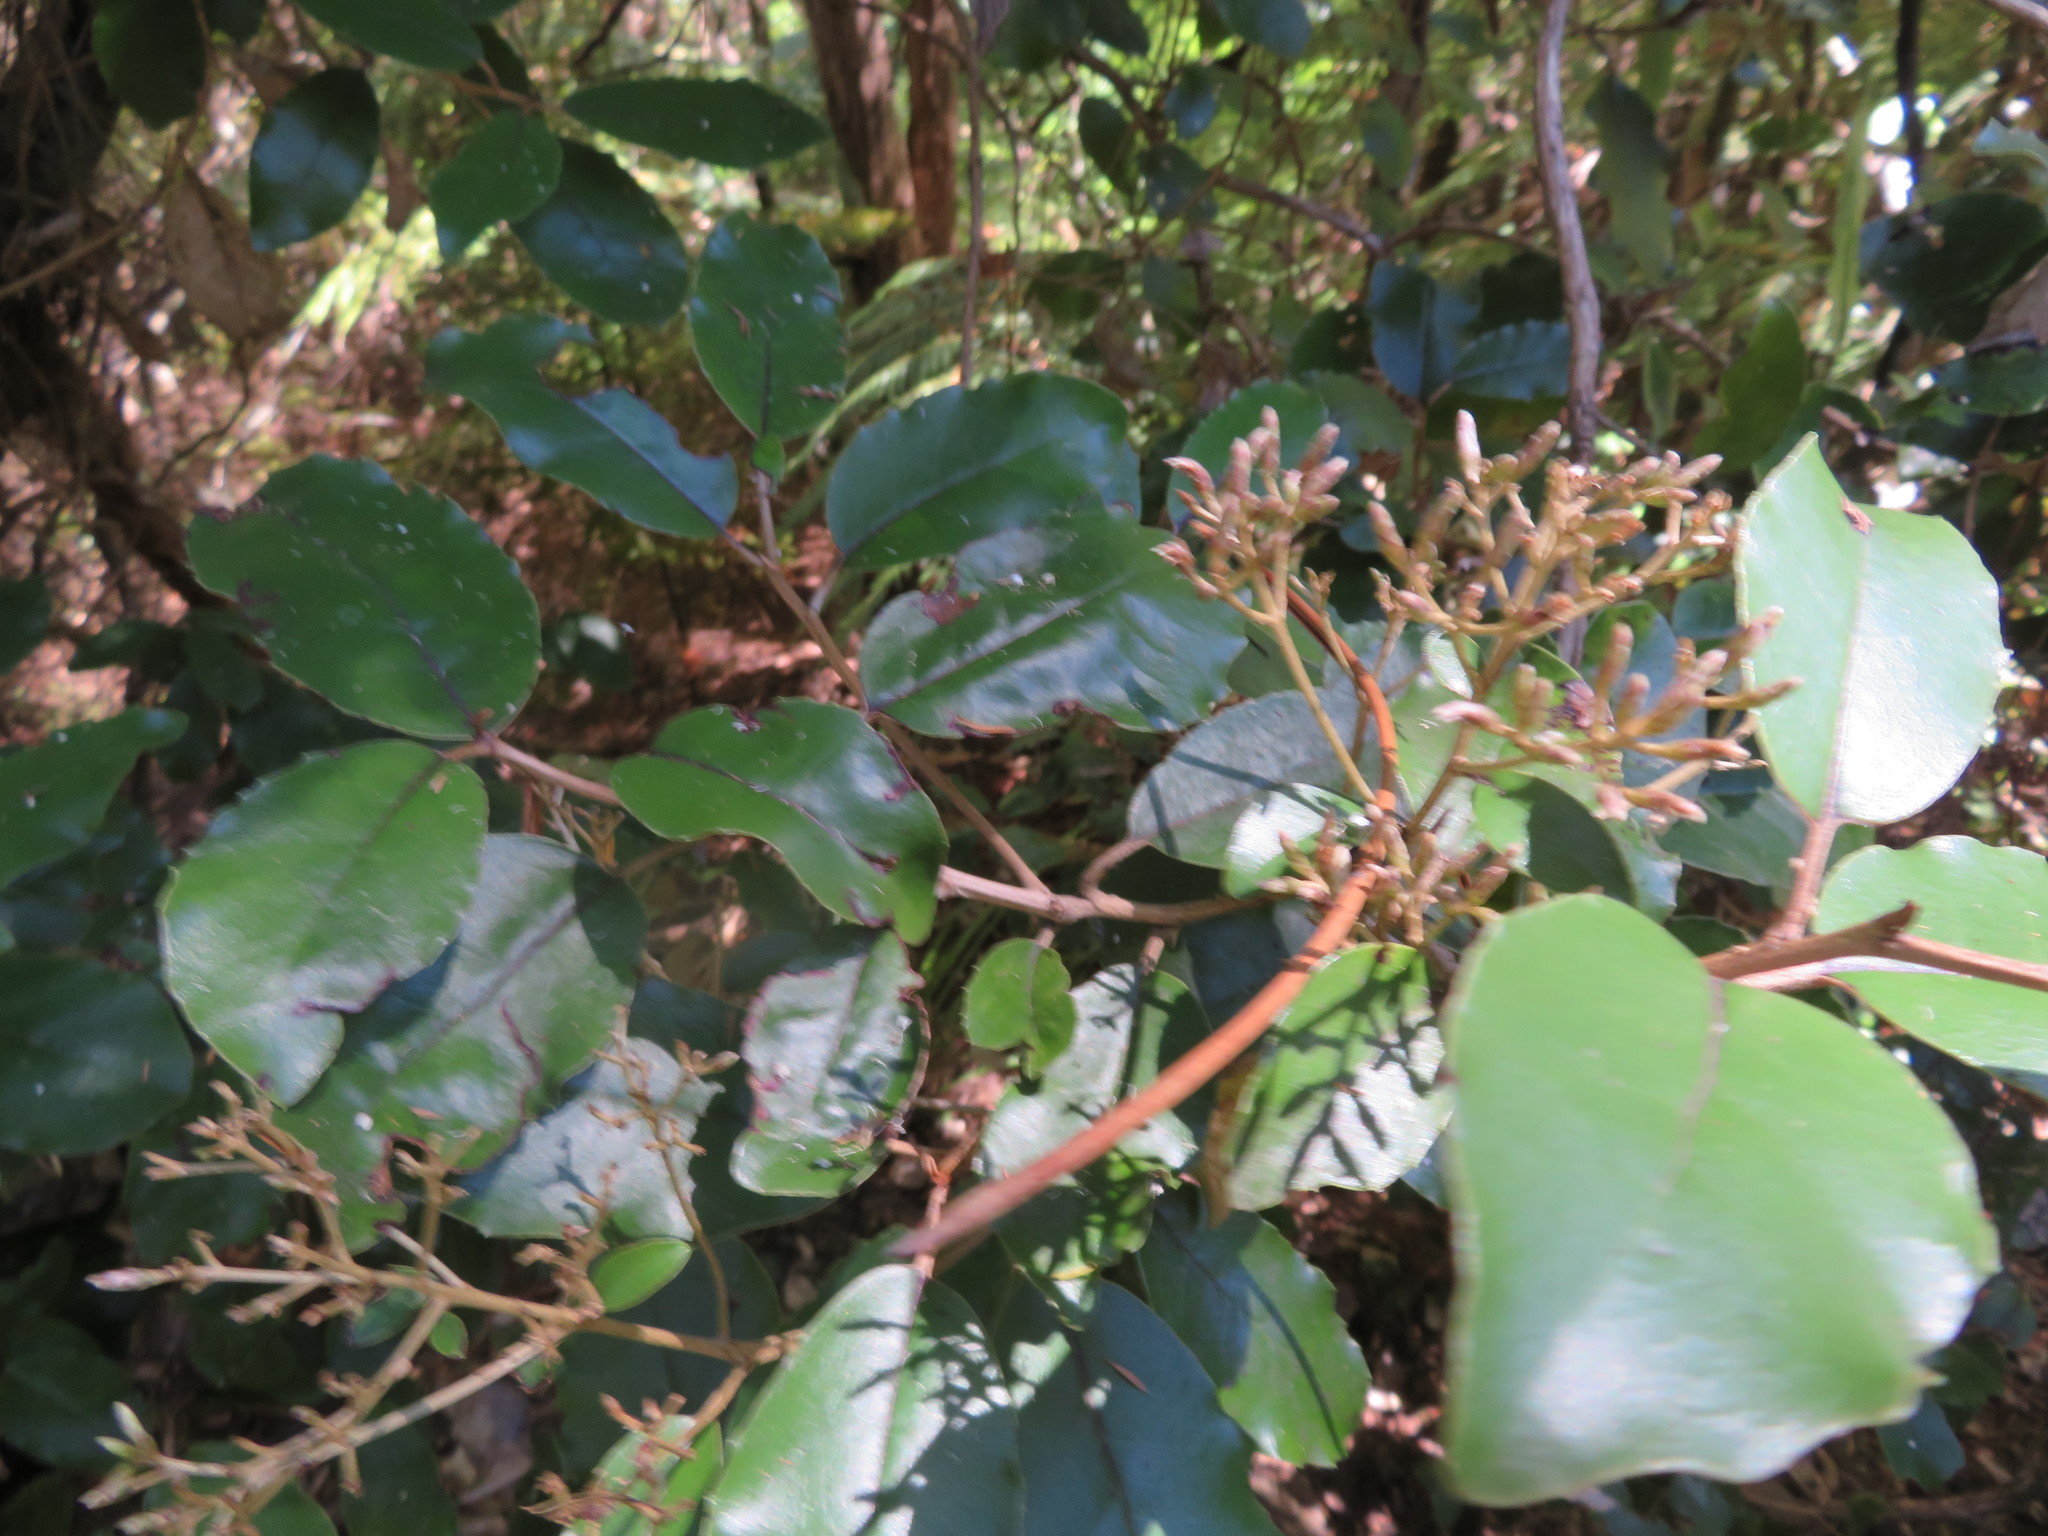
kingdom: Plantae
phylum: Tracheophyta
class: Magnoliopsida
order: Asterales
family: Asteraceae
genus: Olearia
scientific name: Olearia furfuracea
